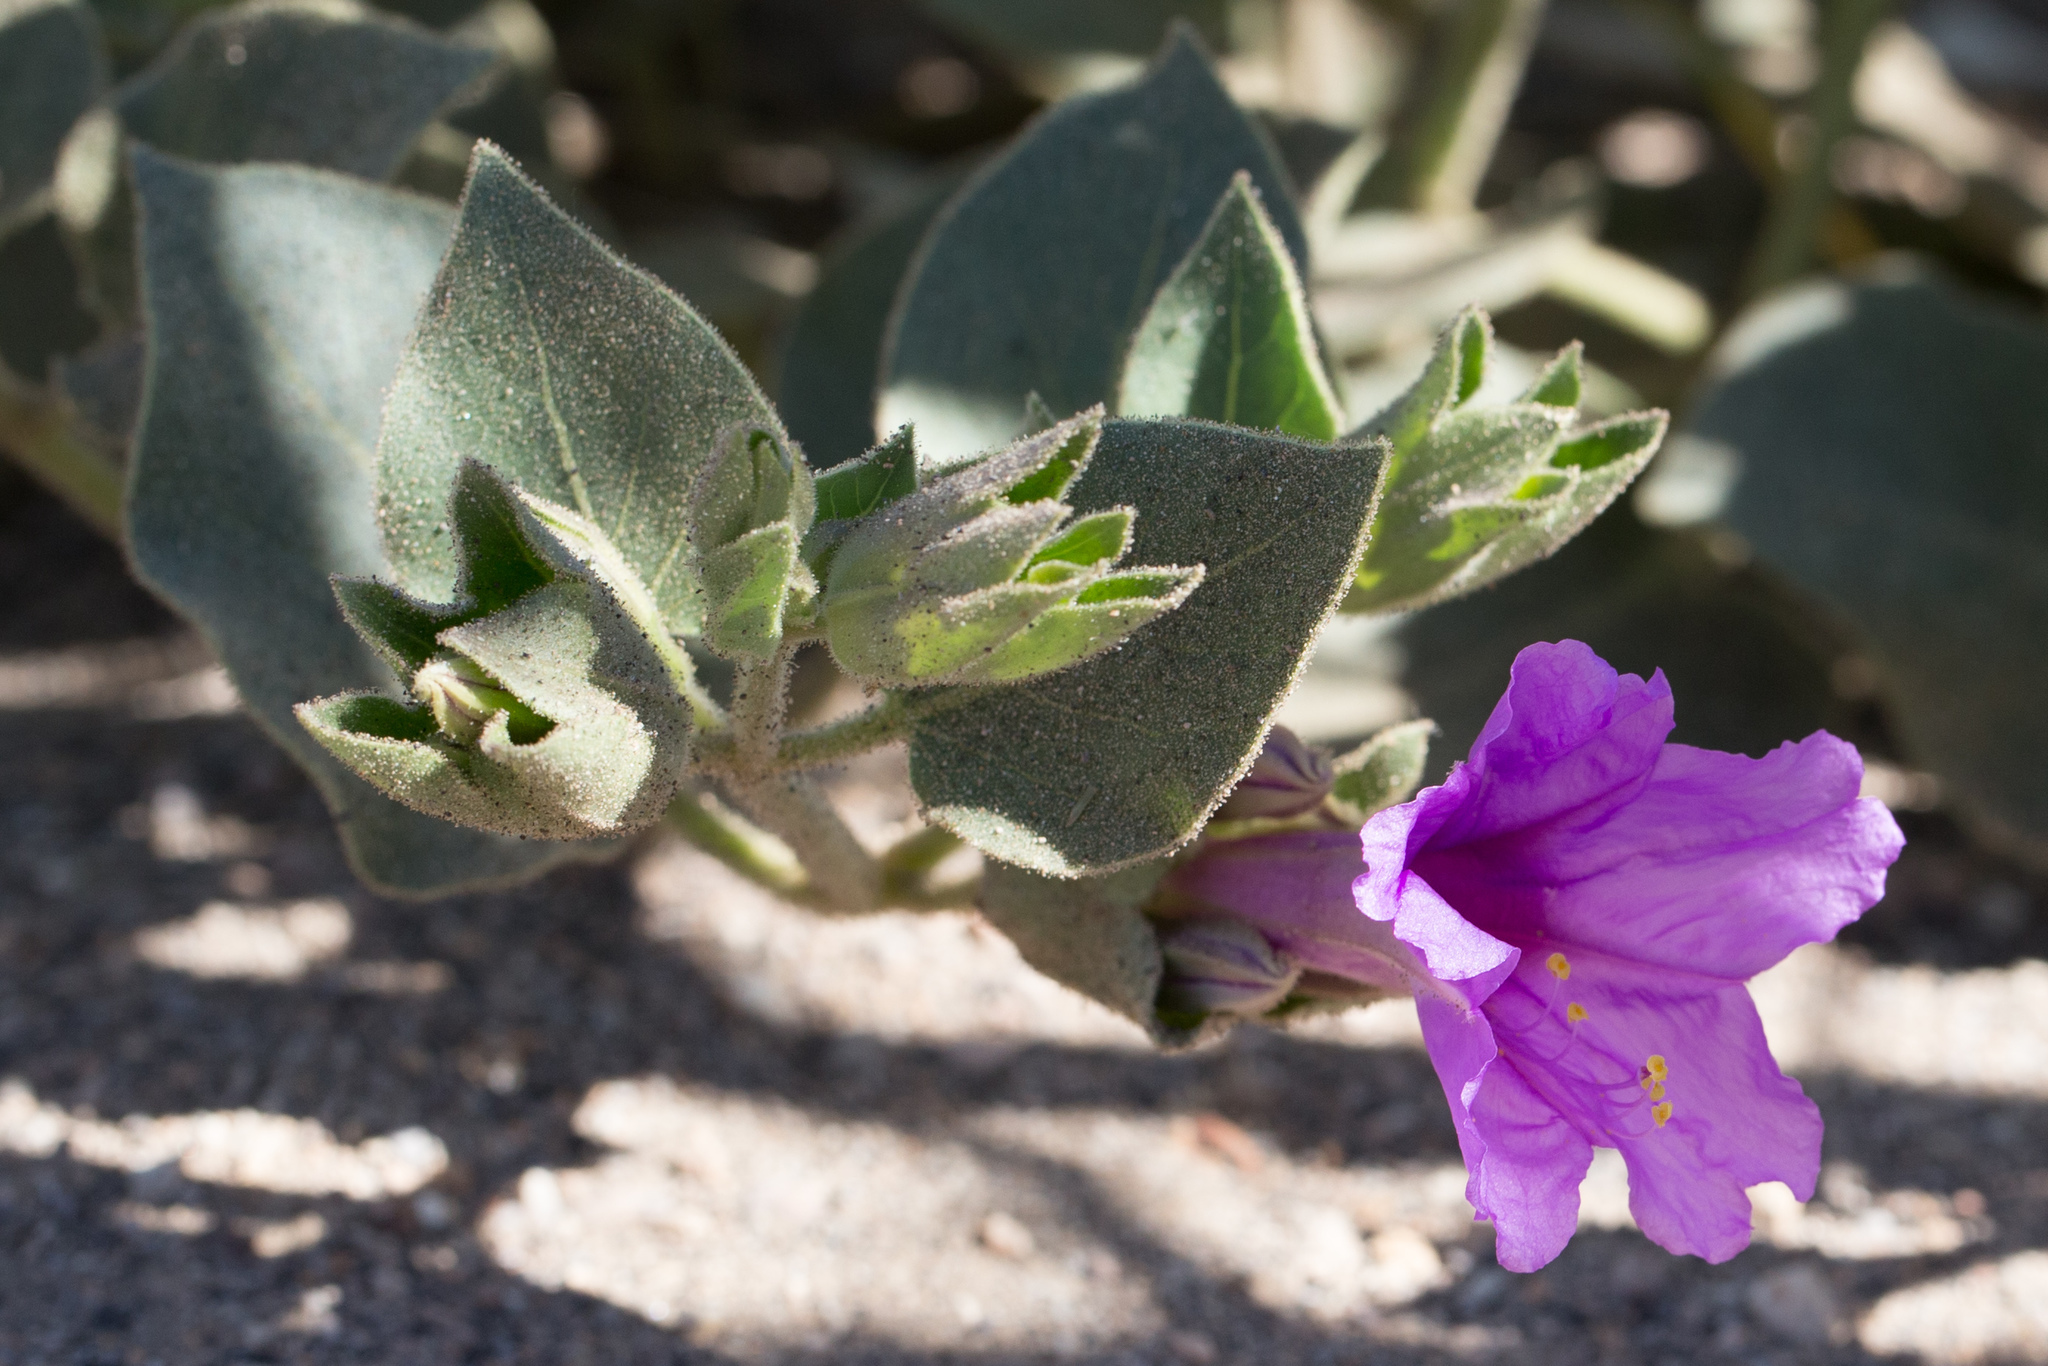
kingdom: Plantae
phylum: Tracheophyta
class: Magnoliopsida
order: Caryophyllales
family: Nyctaginaceae
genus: Mirabilis
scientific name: Mirabilis multiflora
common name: Froebel's four-o'clock
